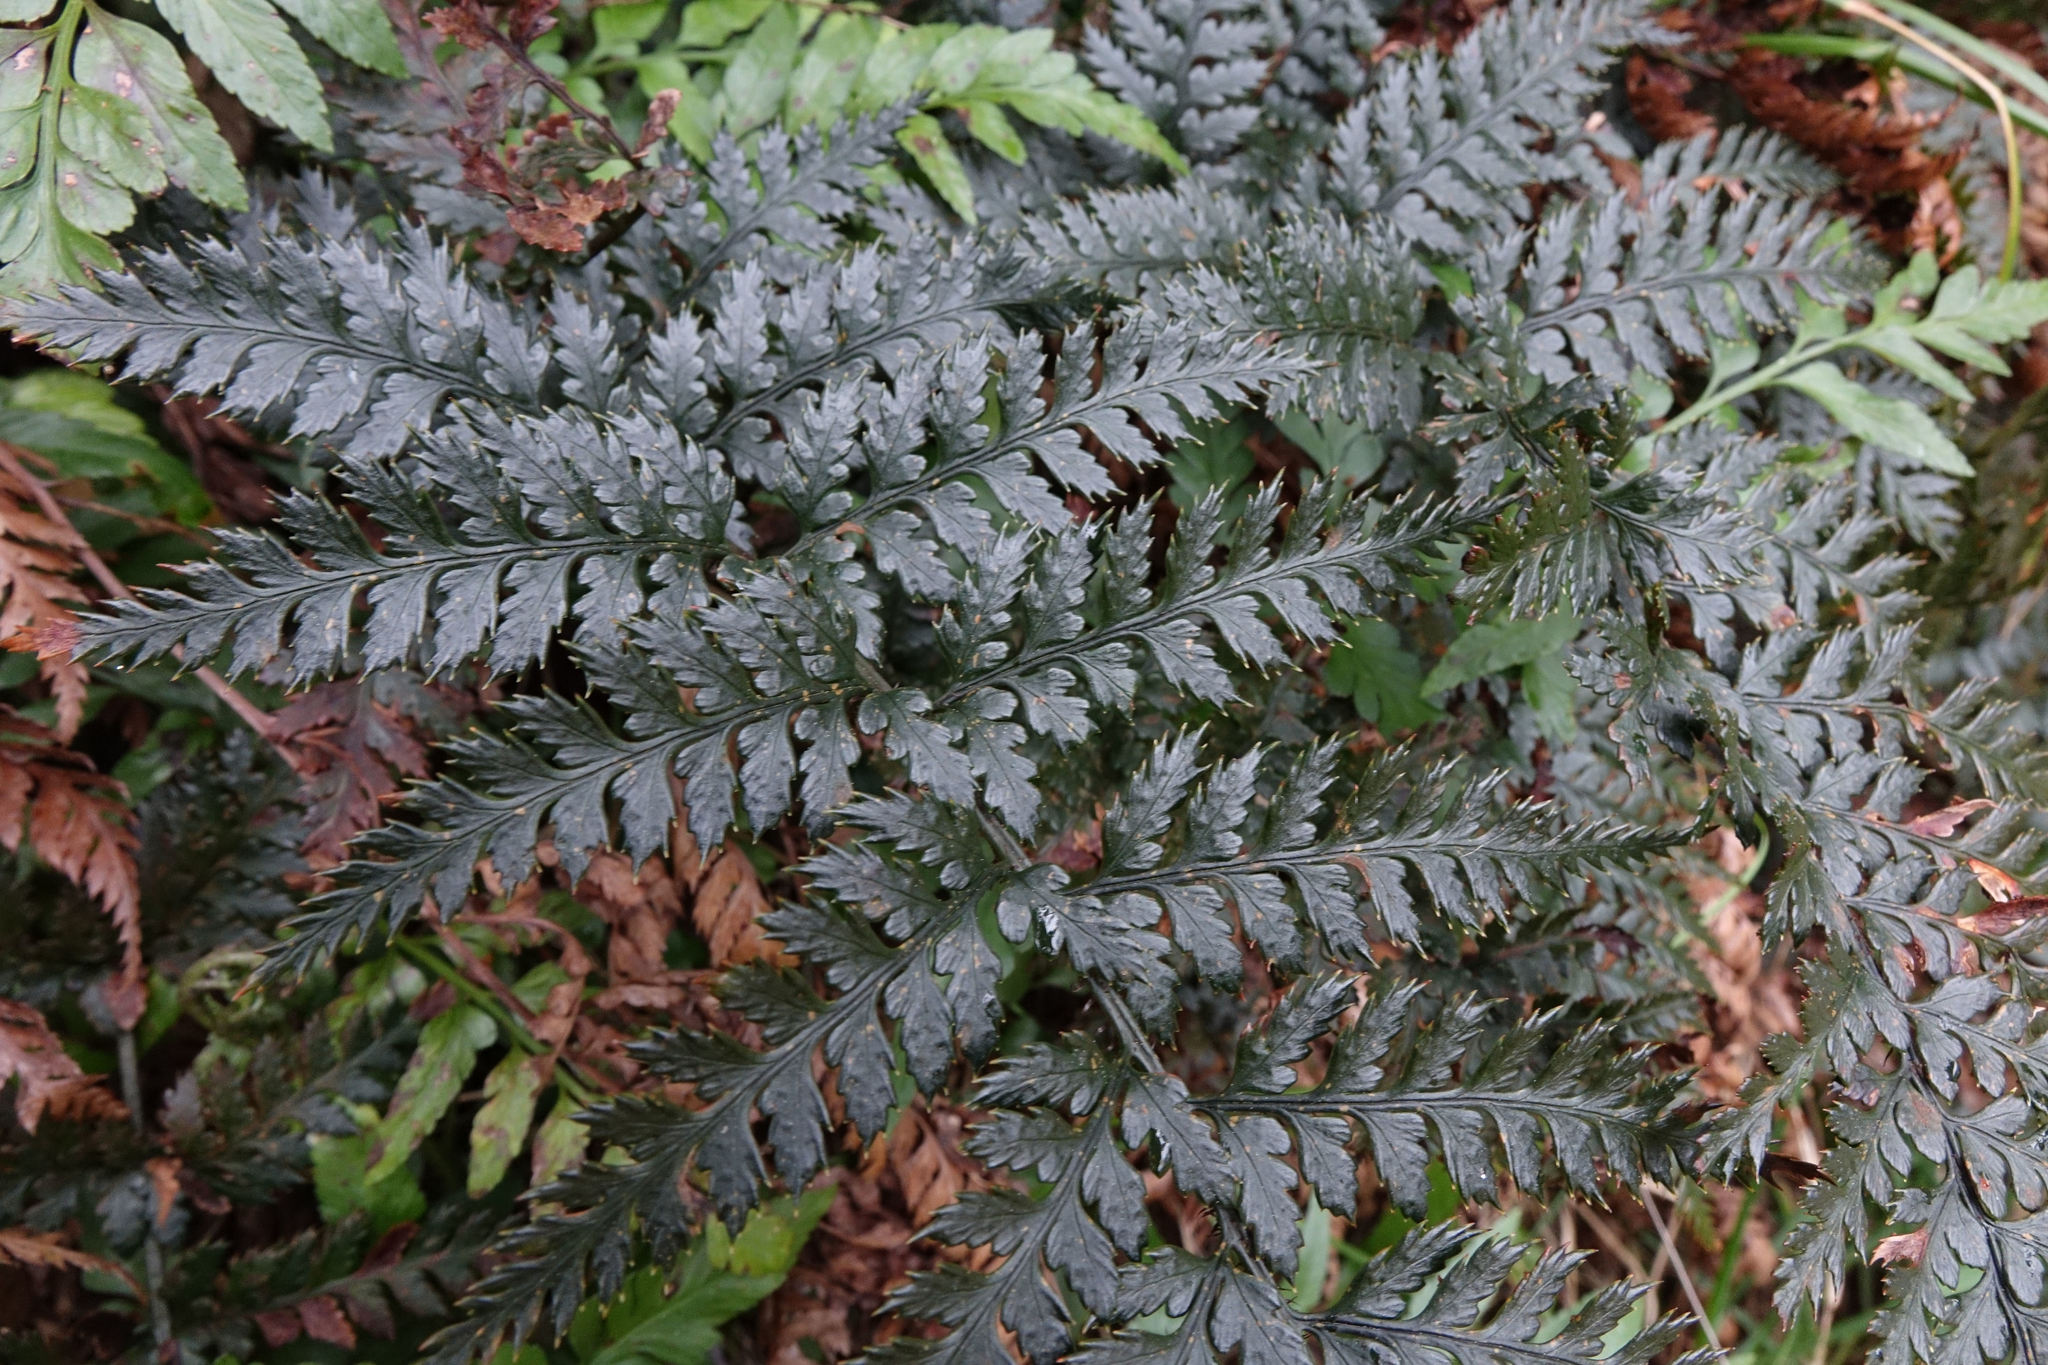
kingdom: Plantae
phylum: Tracheophyta
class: Polypodiopsida
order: Polypodiales
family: Dryopteridaceae
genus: Polystichum
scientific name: Polystichum neozelandicum
